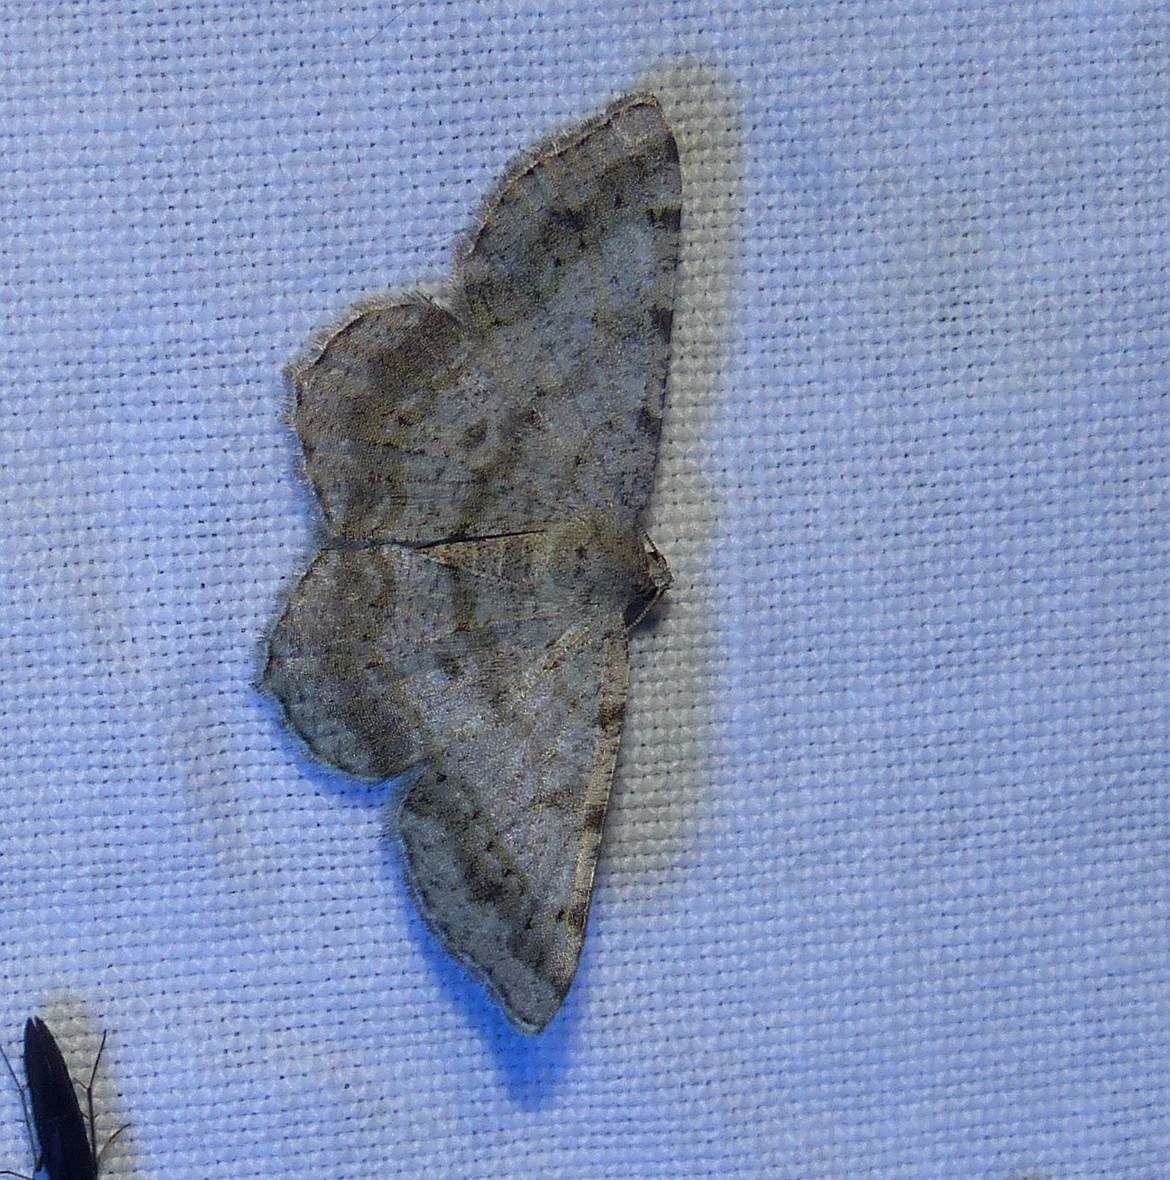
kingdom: Animalia
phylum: Arthropoda
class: Insecta
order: Lepidoptera
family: Geometridae
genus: Digrammia
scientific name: Digrammia ocellinata
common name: Faint-spotted angle
